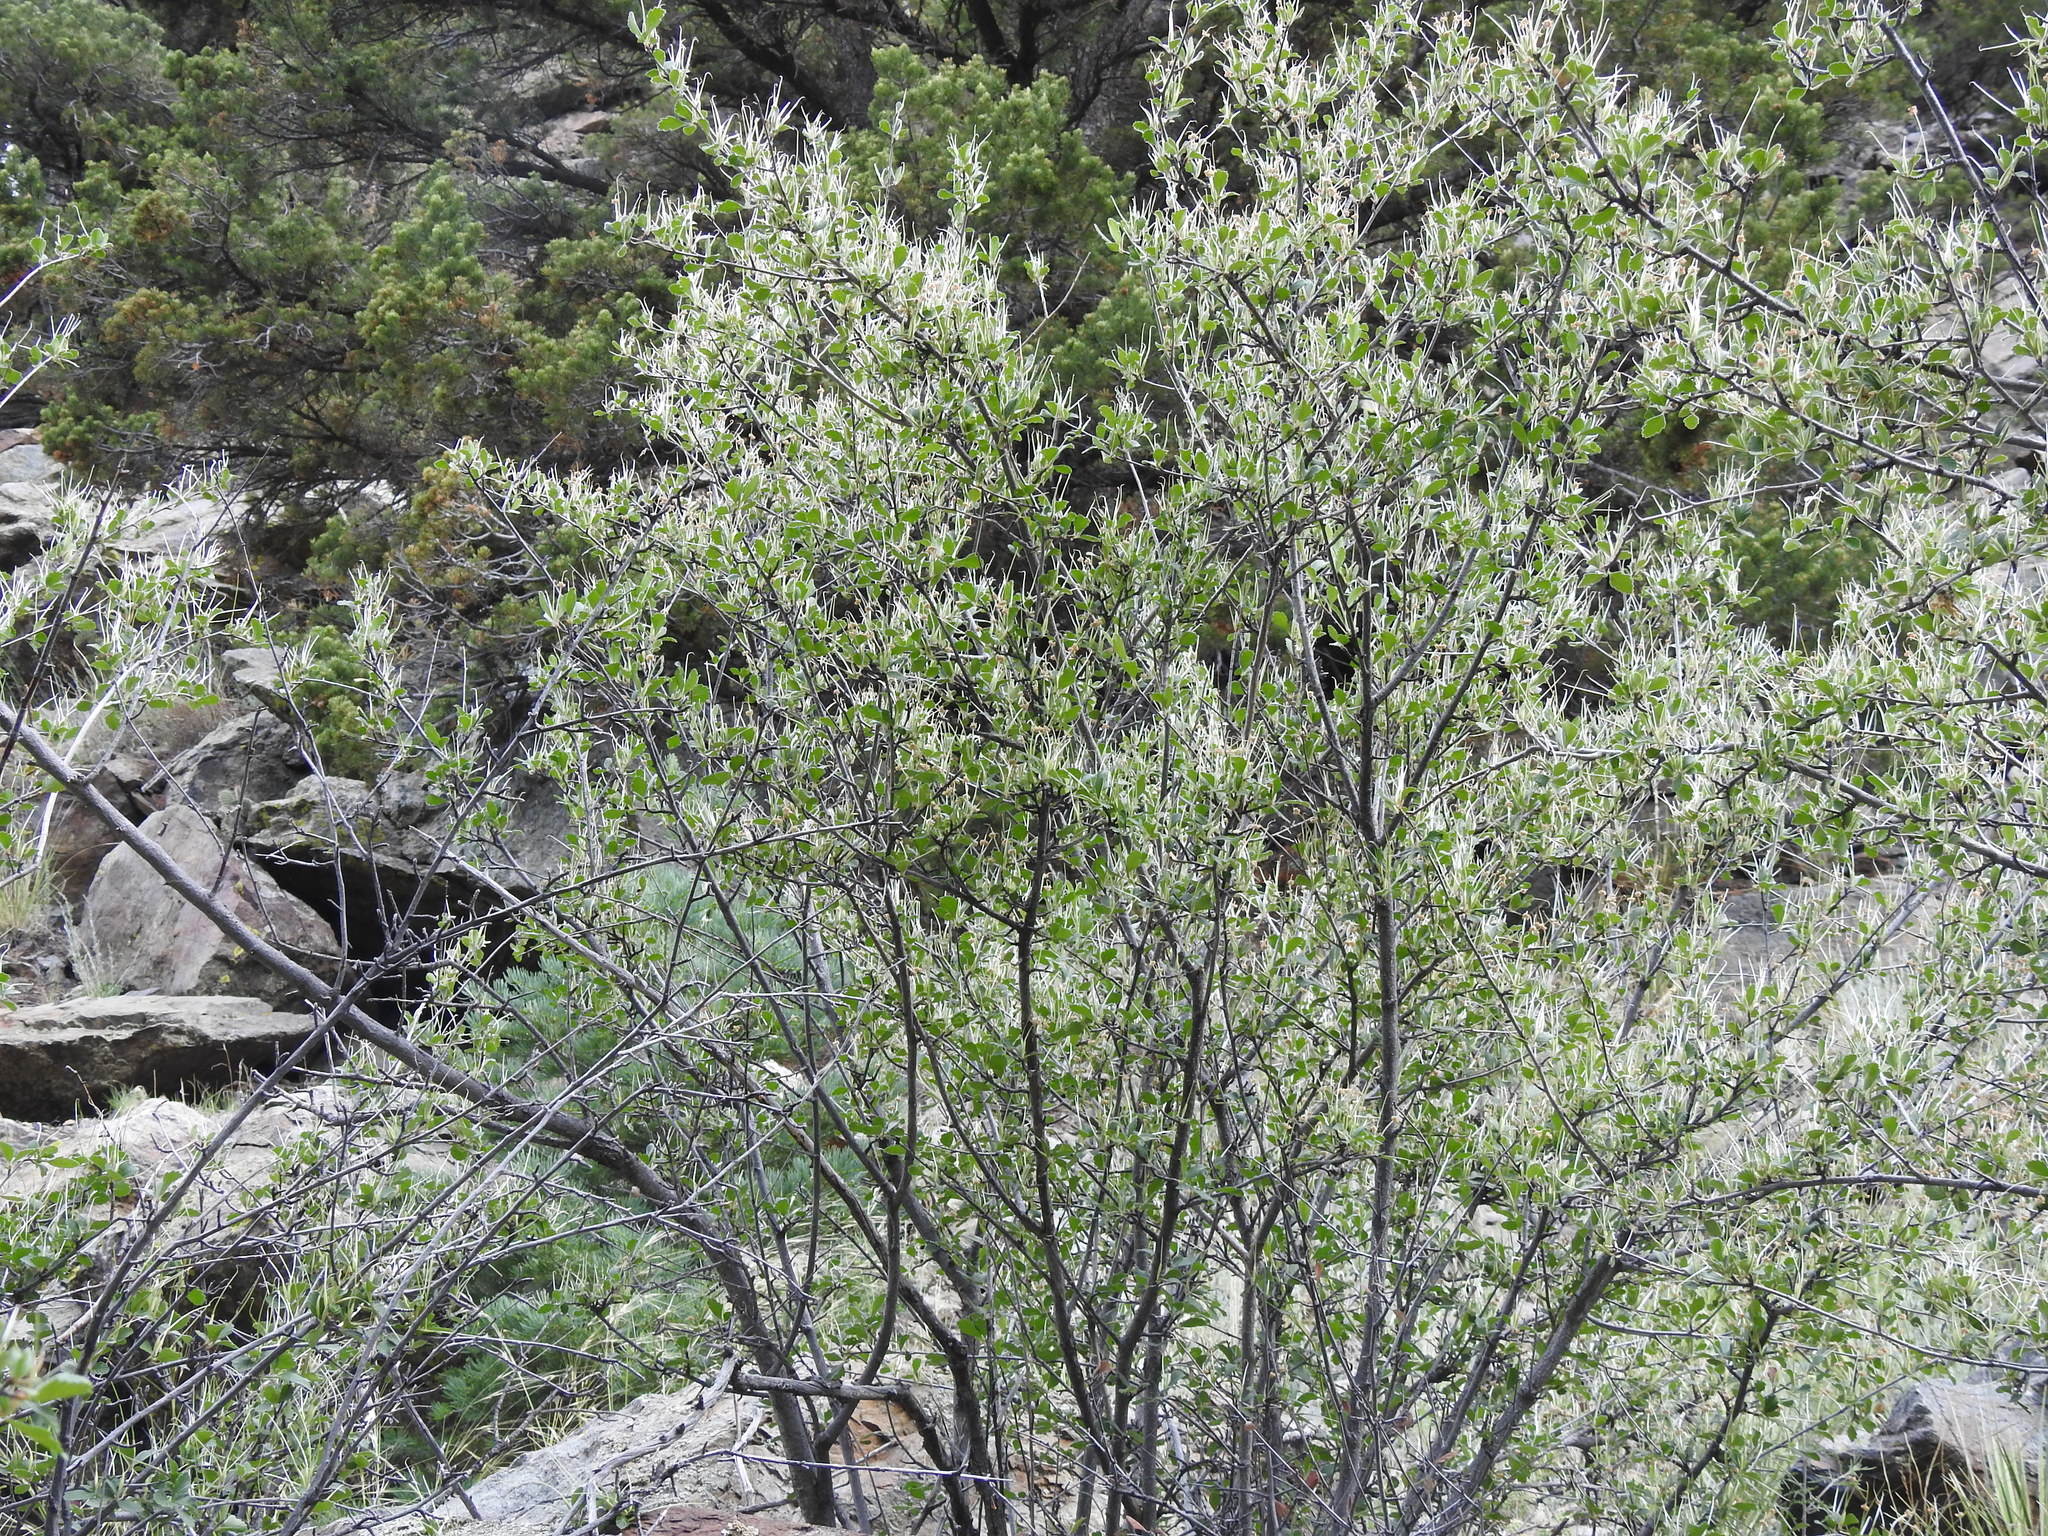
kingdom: Plantae
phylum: Tracheophyta
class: Magnoliopsida
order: Rosales
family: Rosaceae
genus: Cercocarpus
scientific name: Cercocarpus montanus
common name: Alder-leaf cercocarpus
